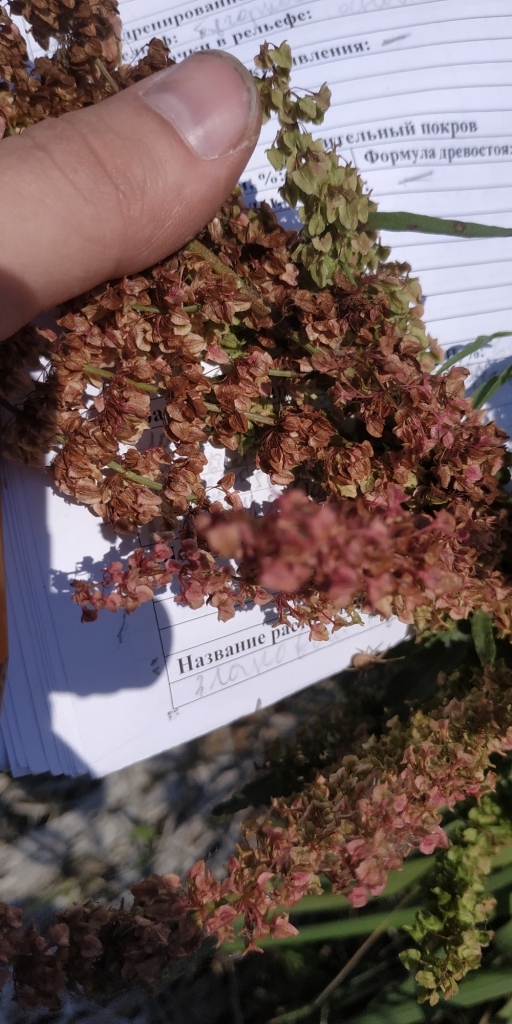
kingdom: Plantae
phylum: Tracheophyta
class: Magnoliopsida
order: Caryophyllales
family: Polygonaceae
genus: Rumex
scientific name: Rumex pseudonatronatus
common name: Field dock
